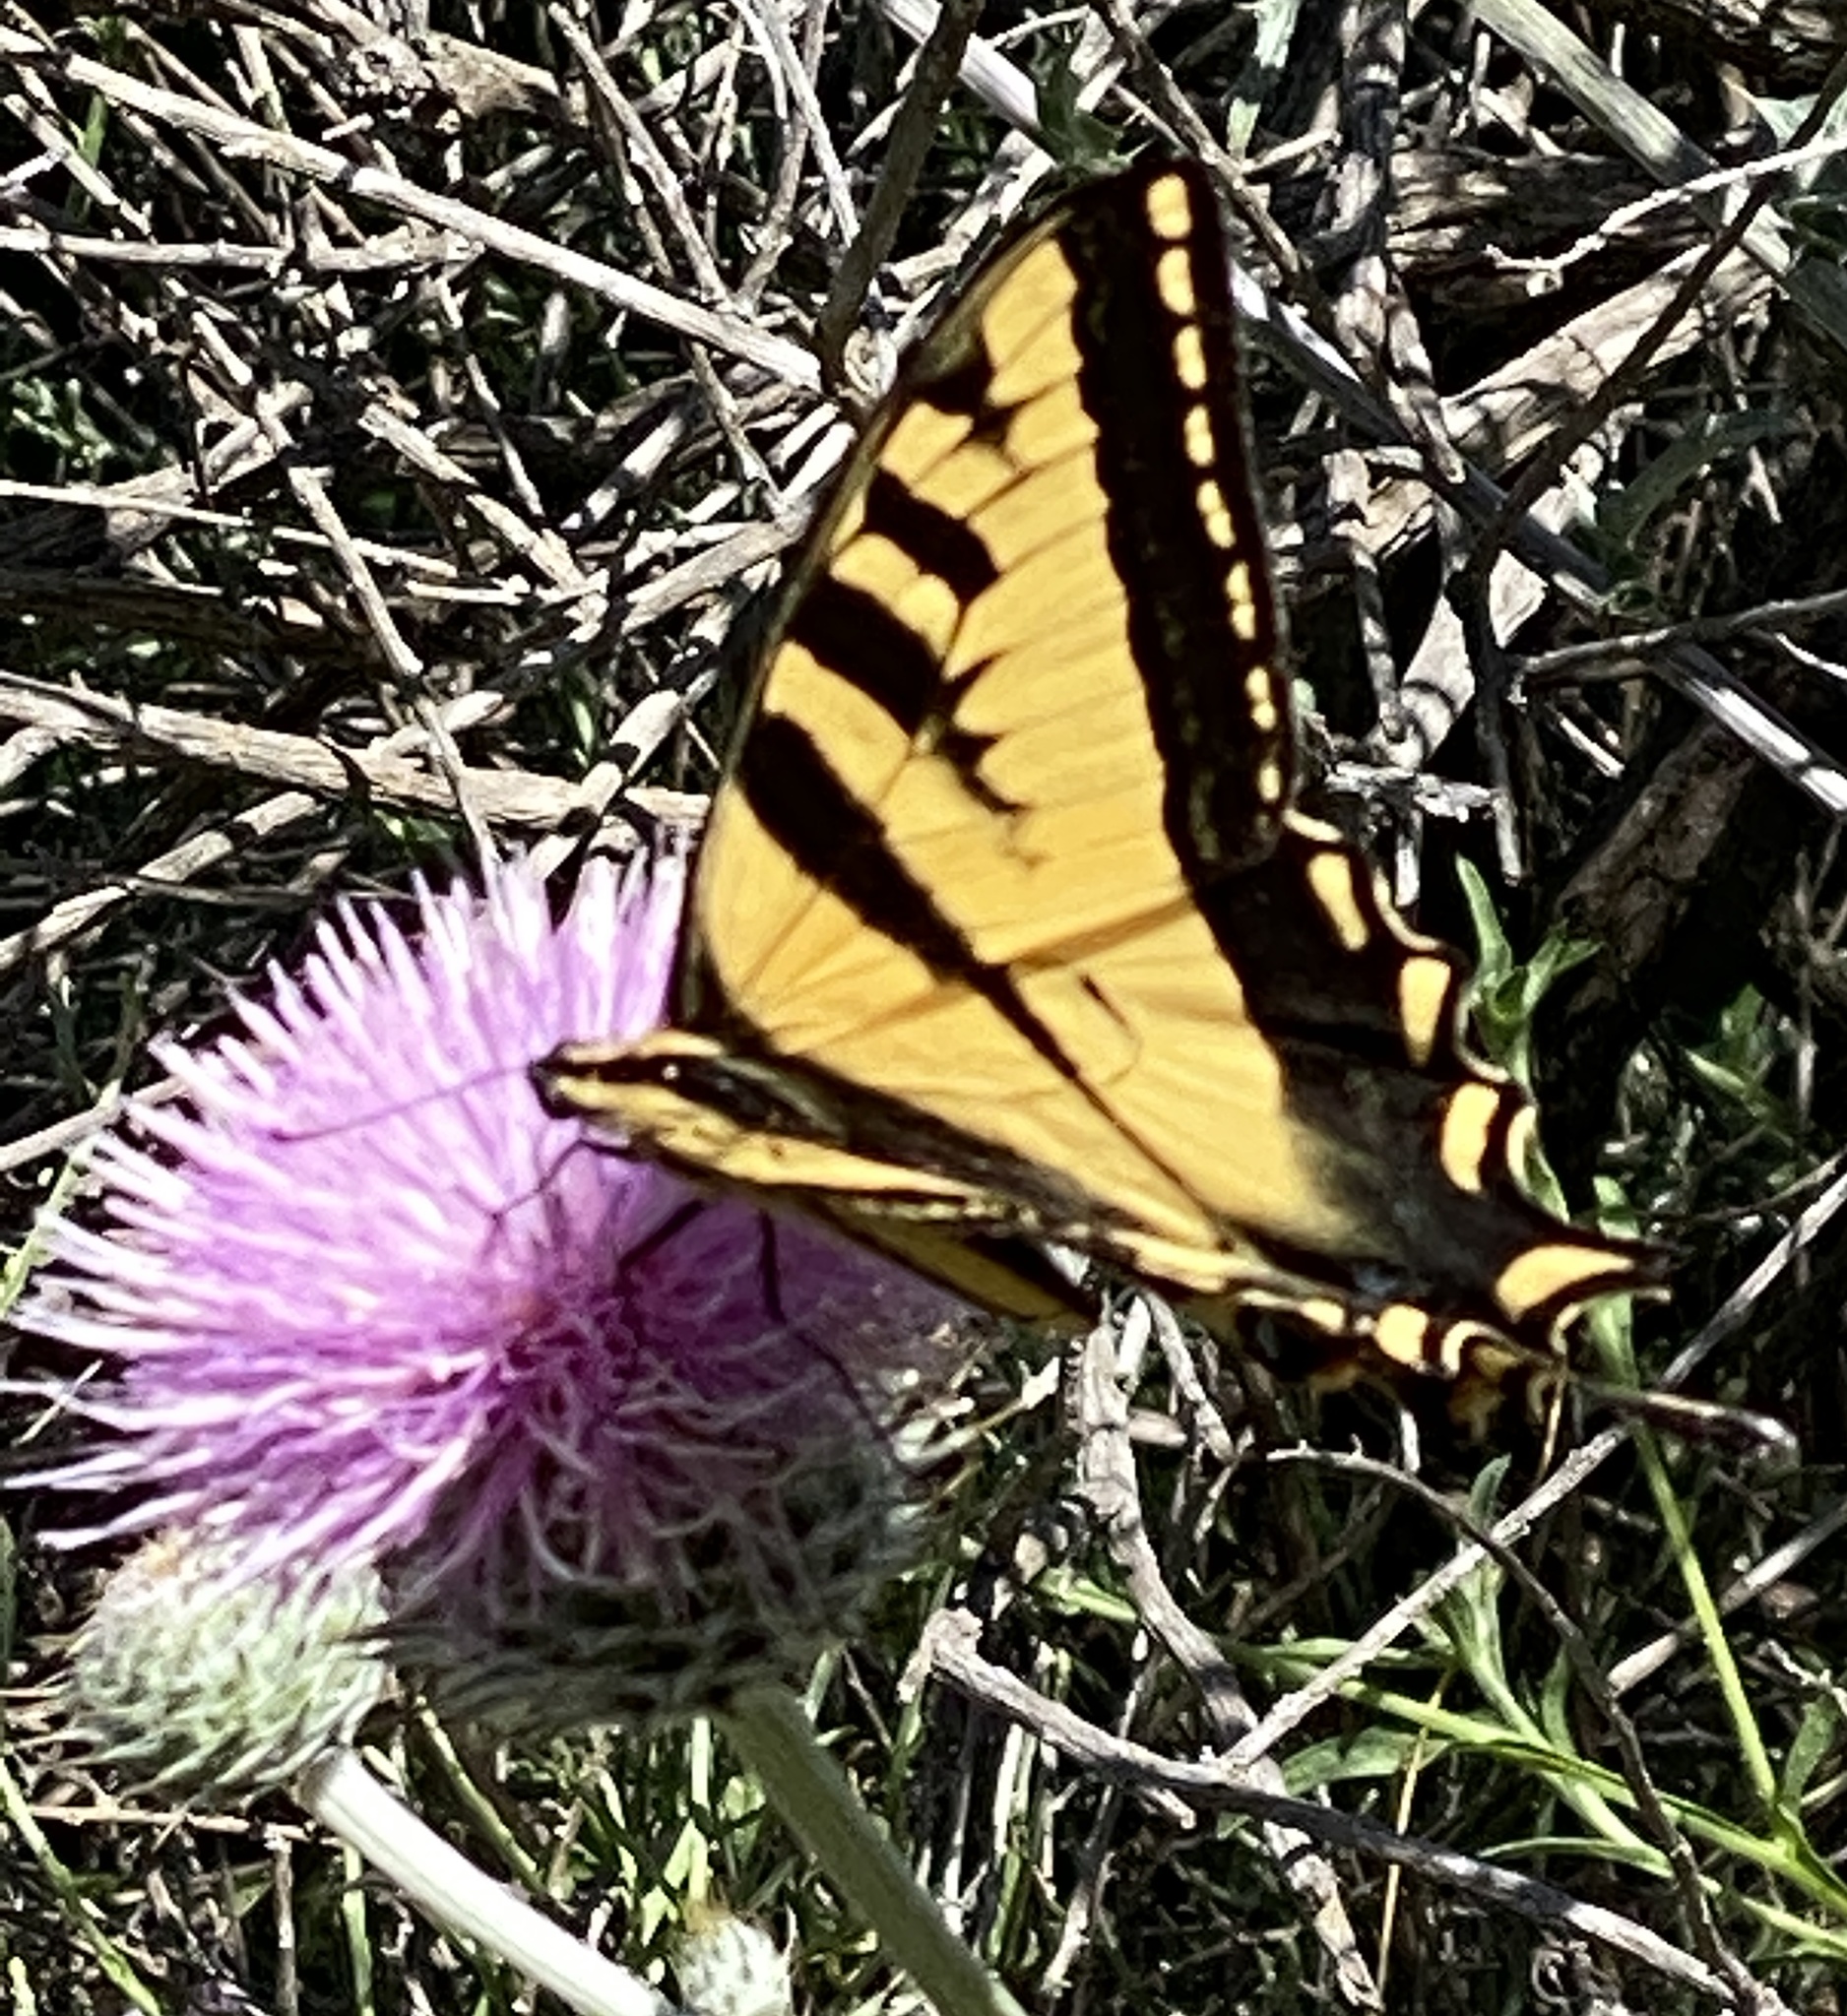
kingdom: Animalia
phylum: Arthropoda
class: Insecta
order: Lepidoptera
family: Papilionidae
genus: Papilio
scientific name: Papilio rutulus
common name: Western tiger swallowtail
